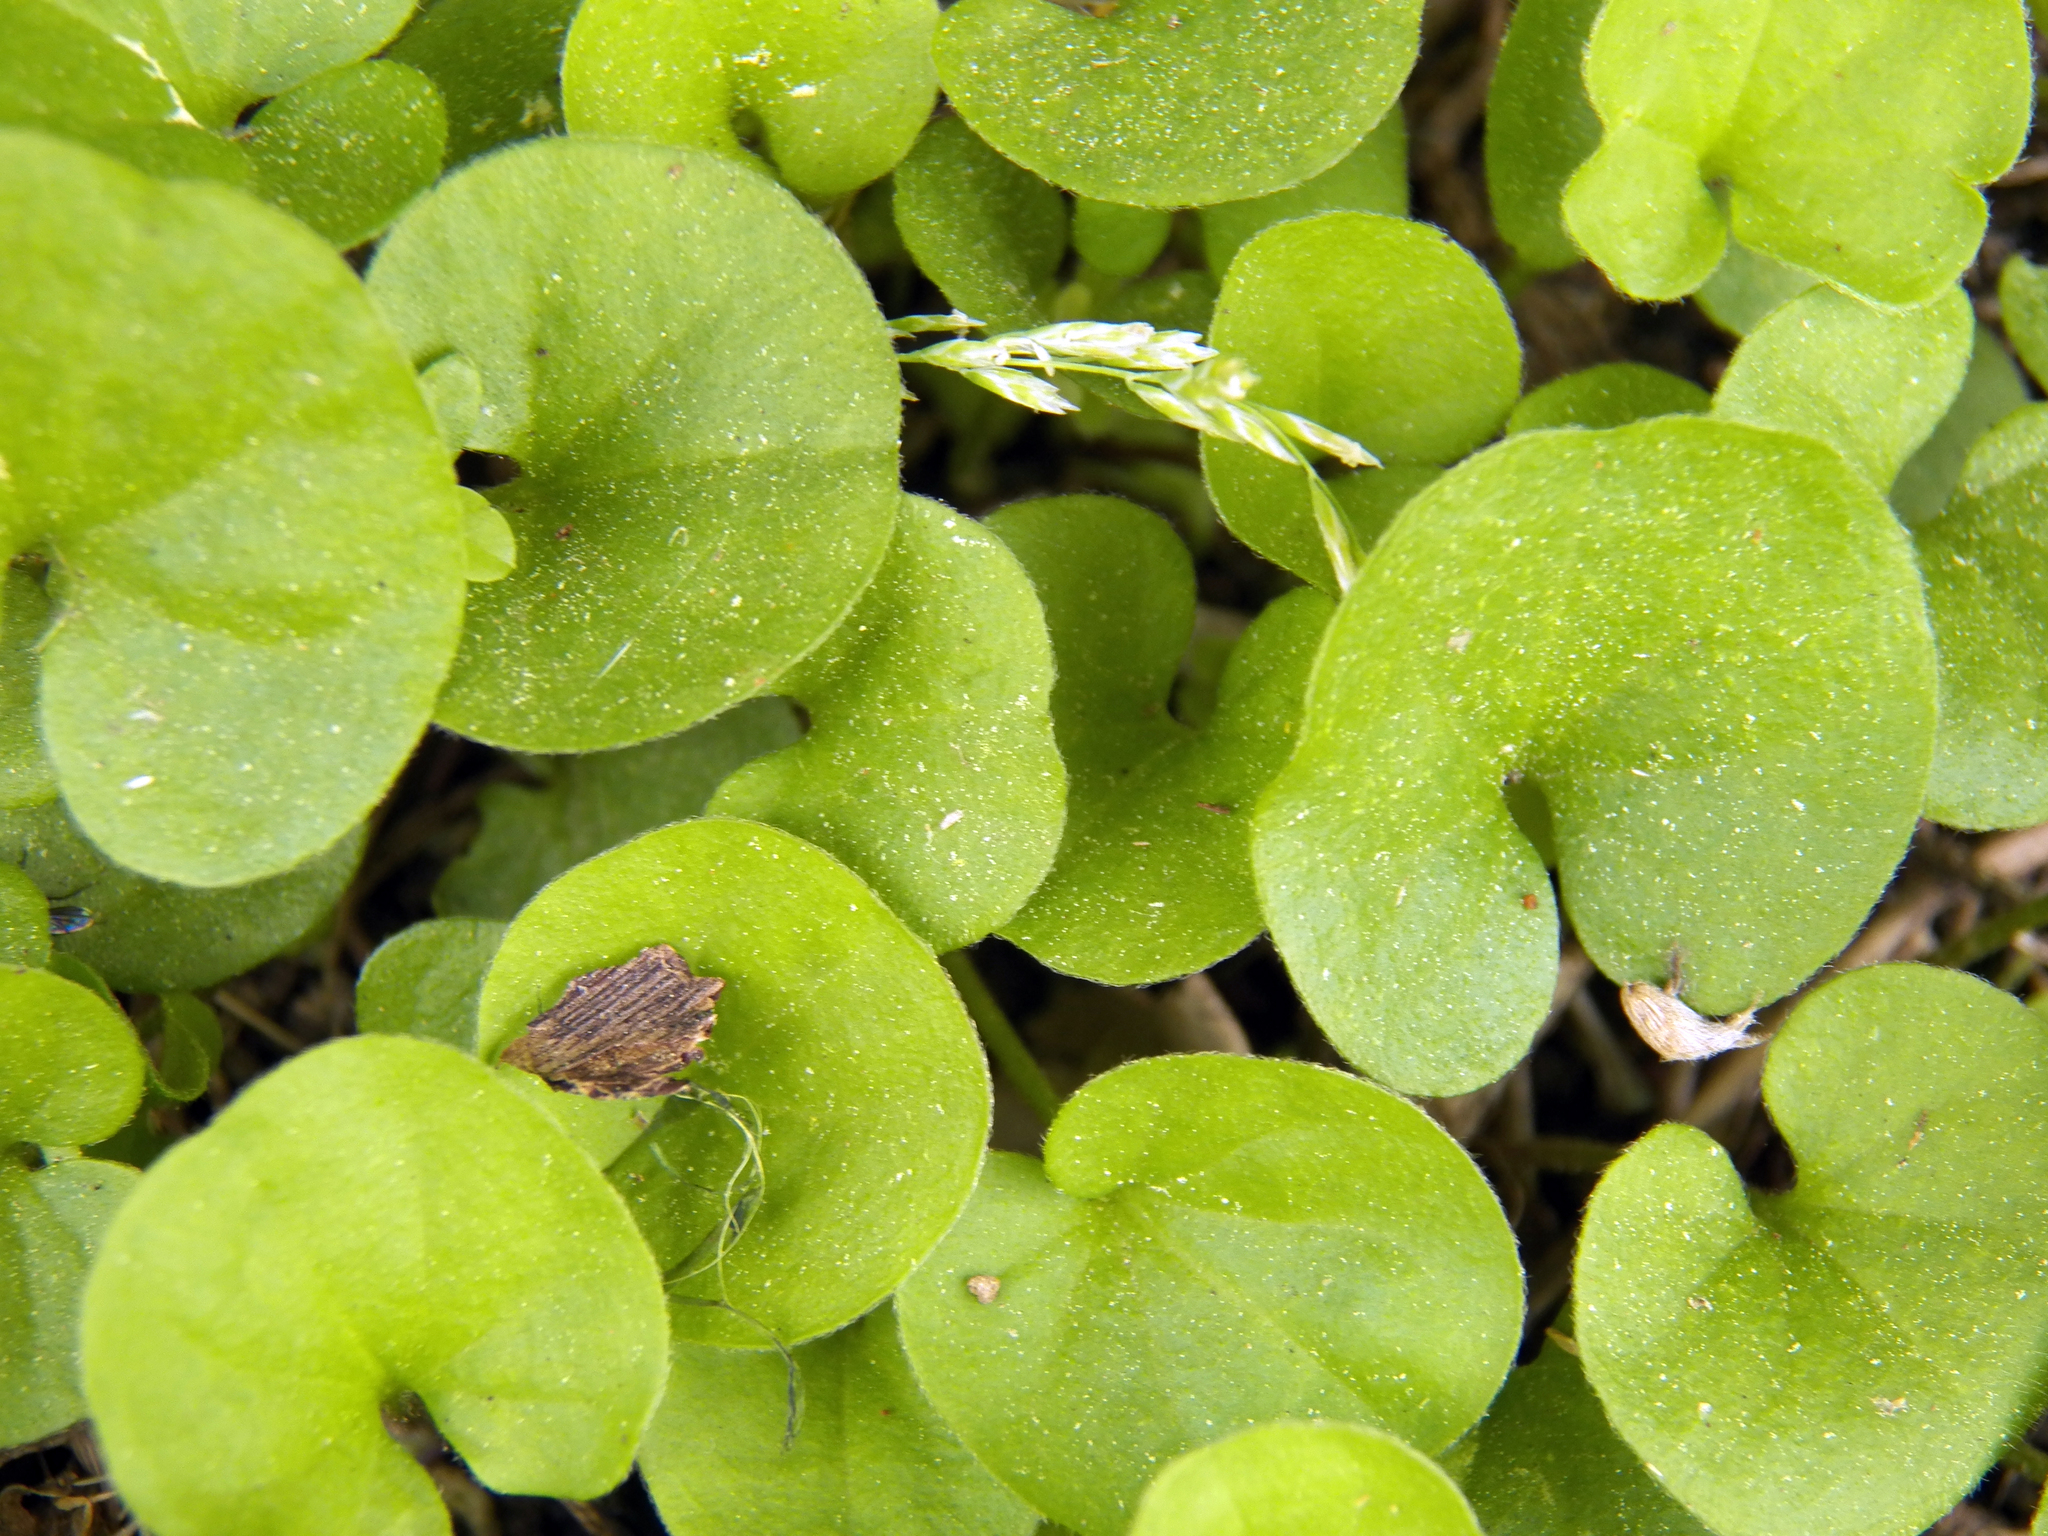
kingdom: Plantae
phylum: Tracheophyta
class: Magnoliopsida
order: Solanales
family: Convolvulaceae
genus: Dichondra
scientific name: Dichondra carolinensis
